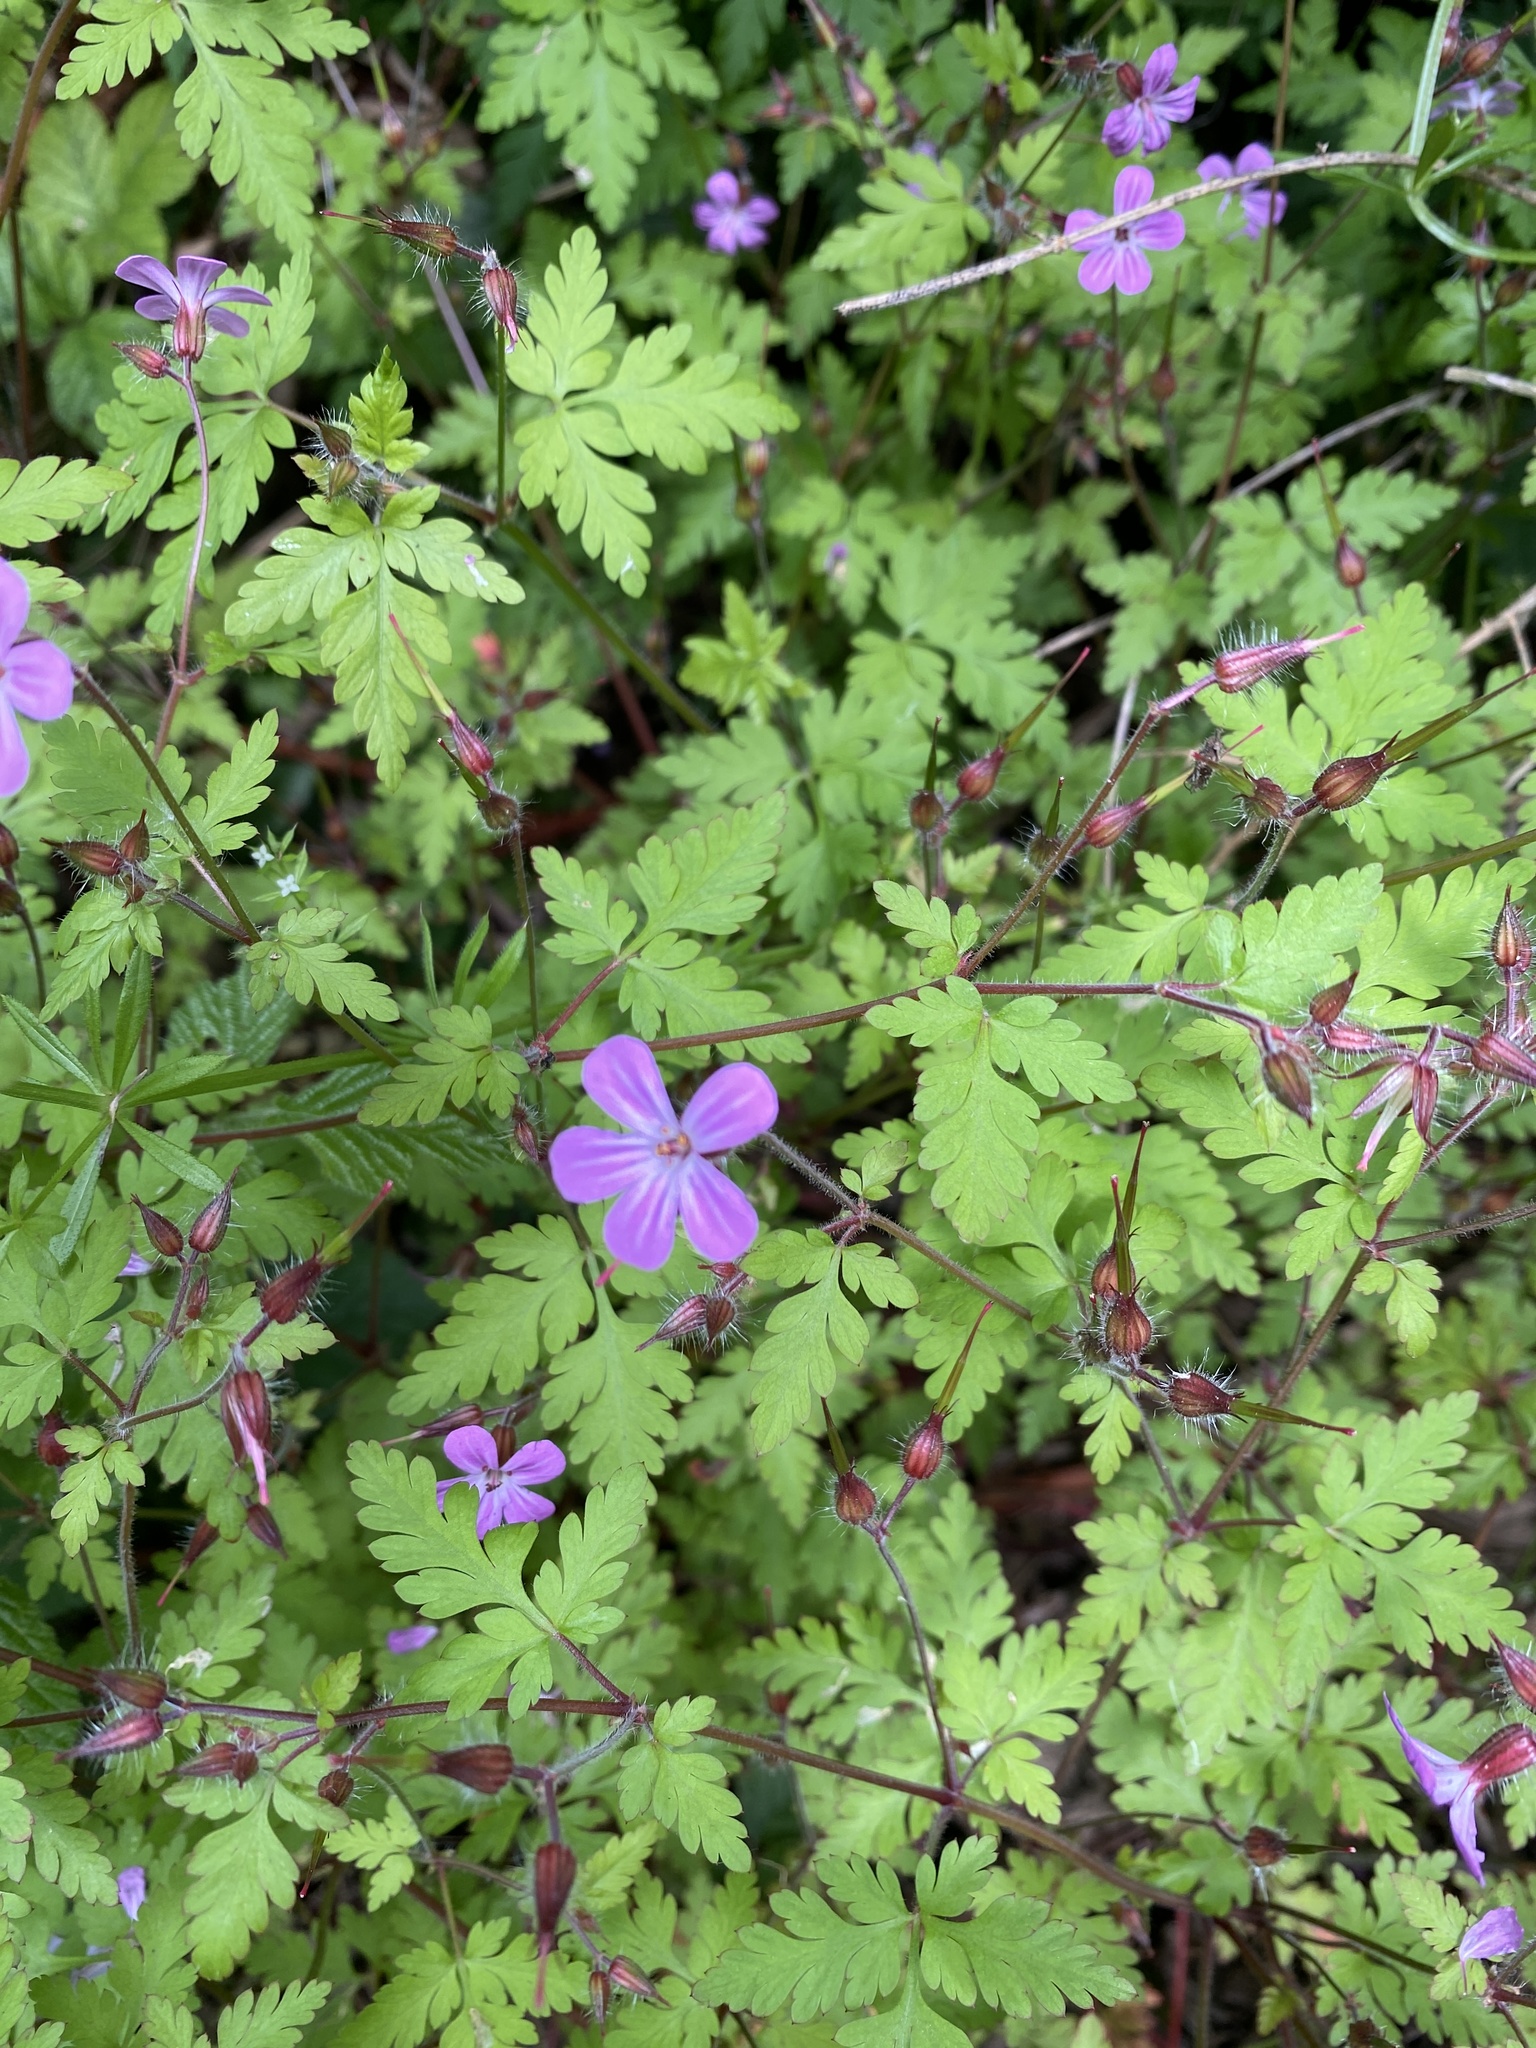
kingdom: Plantae
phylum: Tracheophyta
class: Magnoliopsida
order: Geraniales
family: Geraniaceae
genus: Geranium
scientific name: Geranium robertianum
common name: Herb-robert
